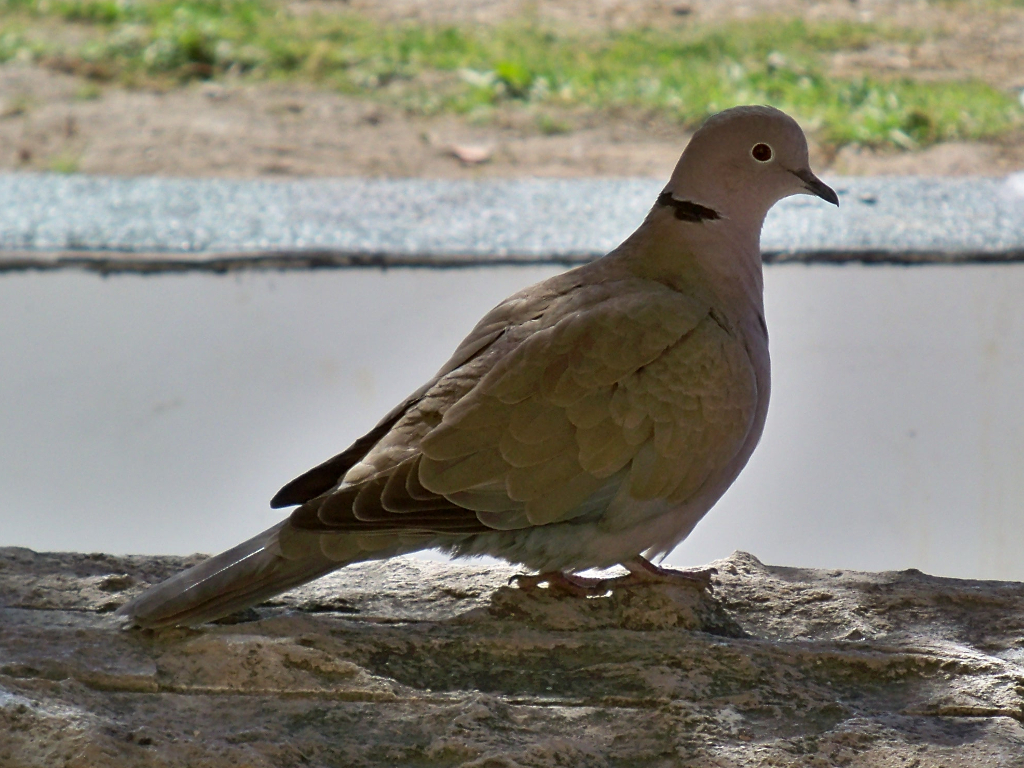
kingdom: Animalia
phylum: Chordata
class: Aves
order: Columbiformes
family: Columbidae
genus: Streptopelia
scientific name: Streptopelia decaocto
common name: Eurasian collared dove
